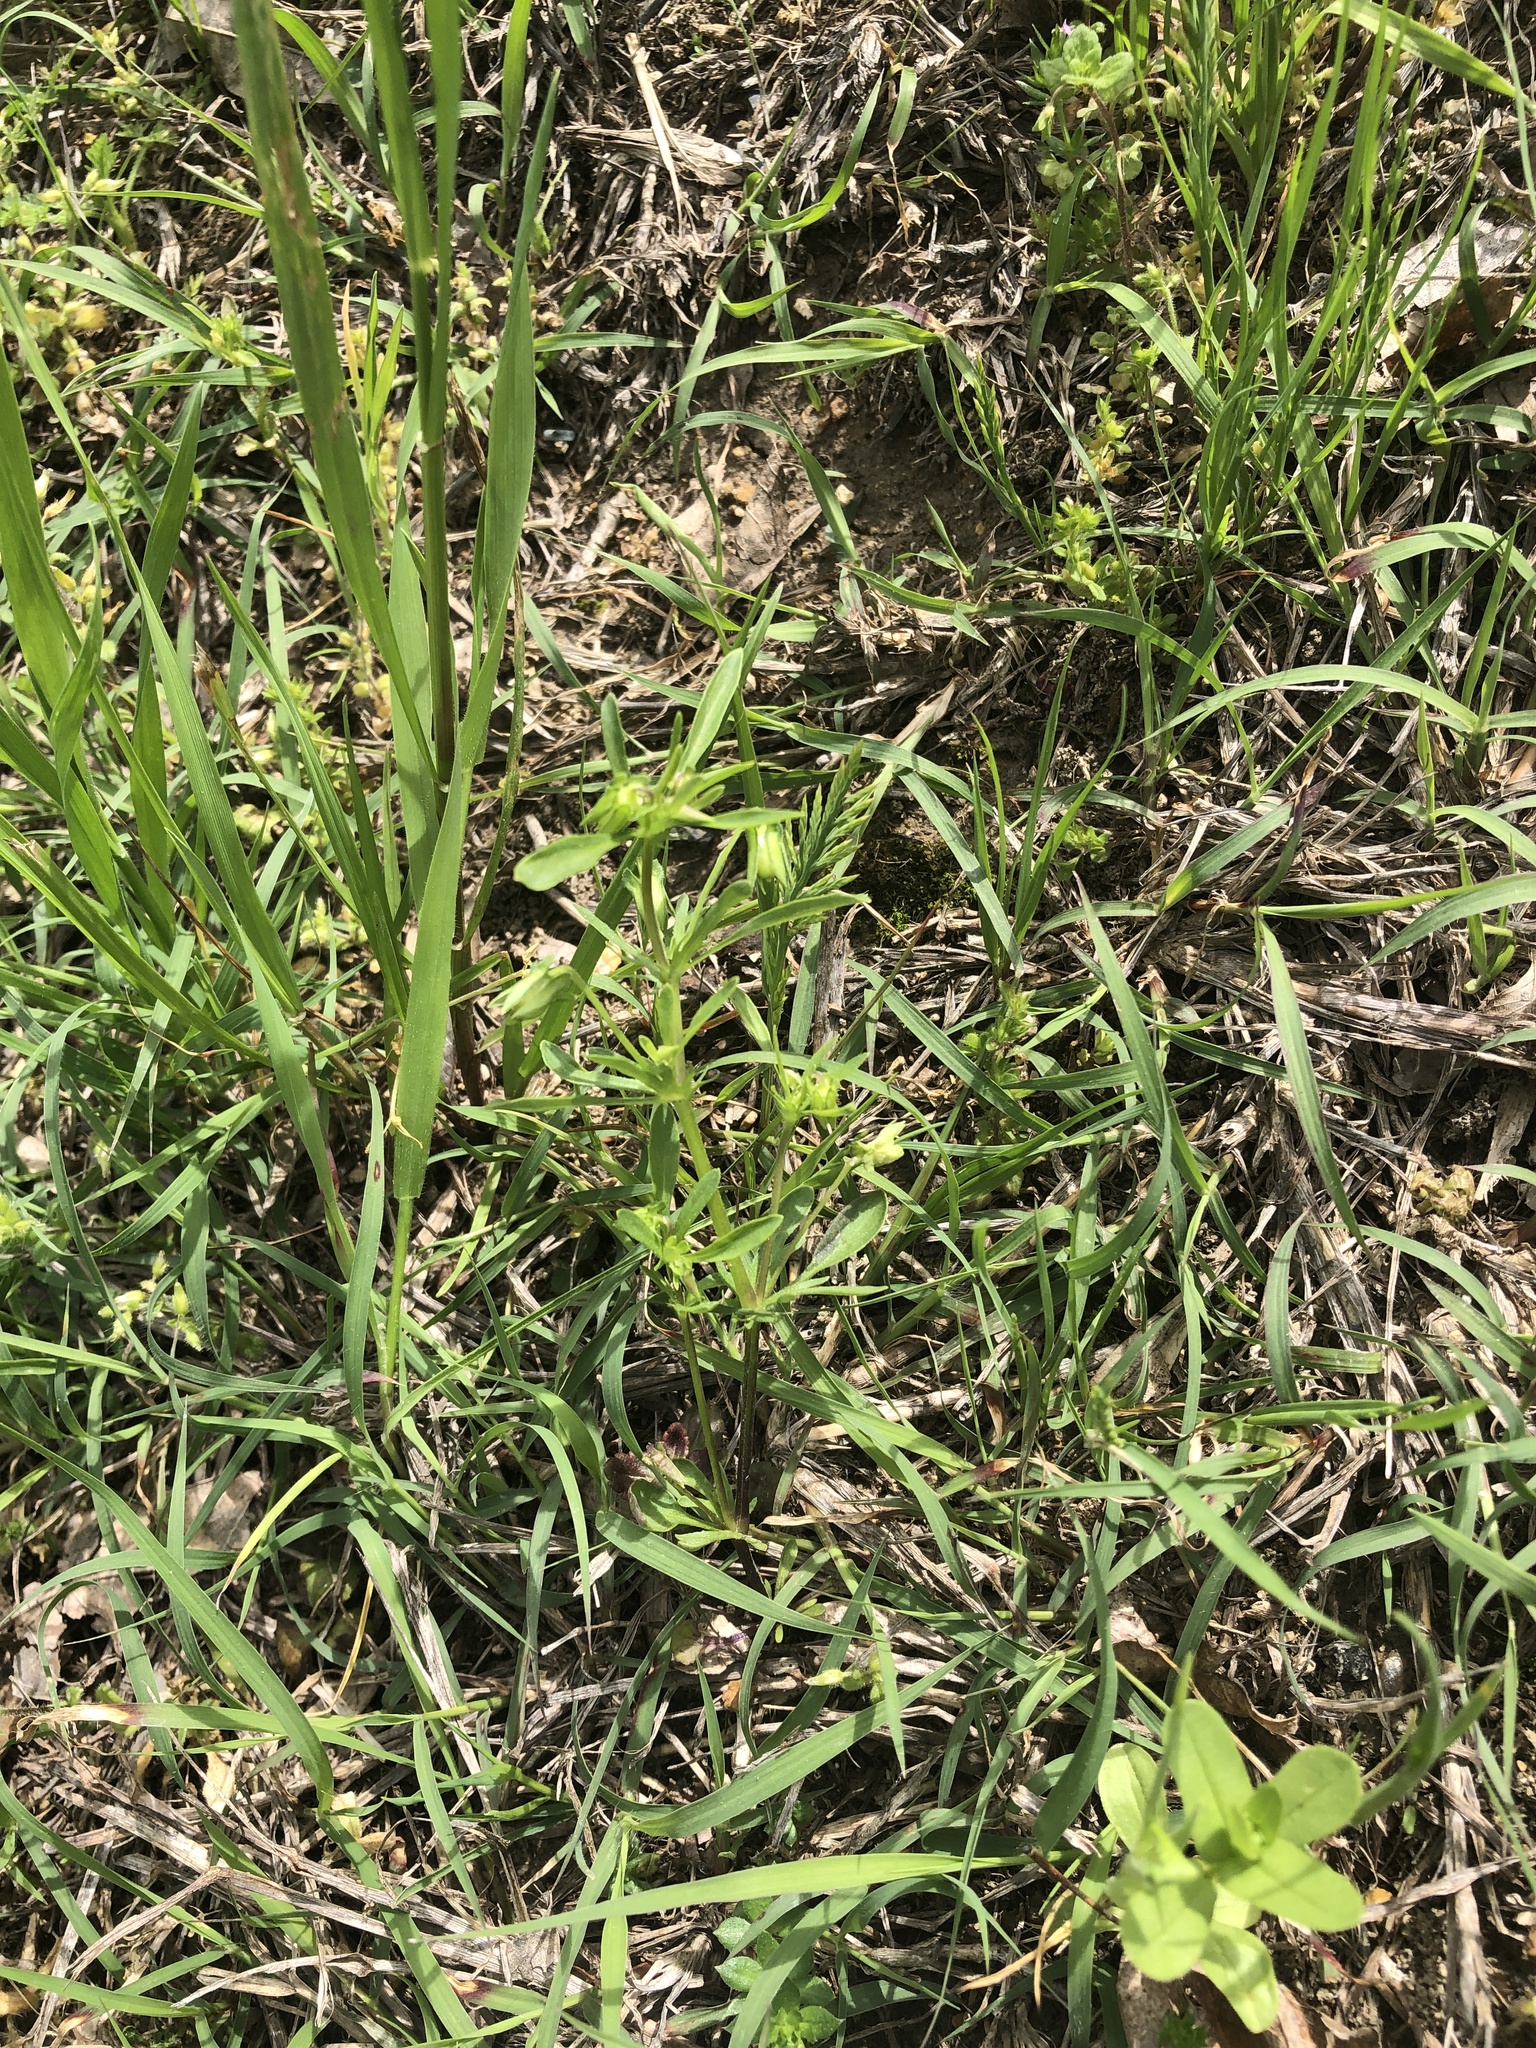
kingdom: Plantae
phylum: Tracheophyta
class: Magnoliopsida
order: Malpighiales
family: Violaceae
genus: Viola
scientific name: Viola rafinesquei
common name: American field pansy
